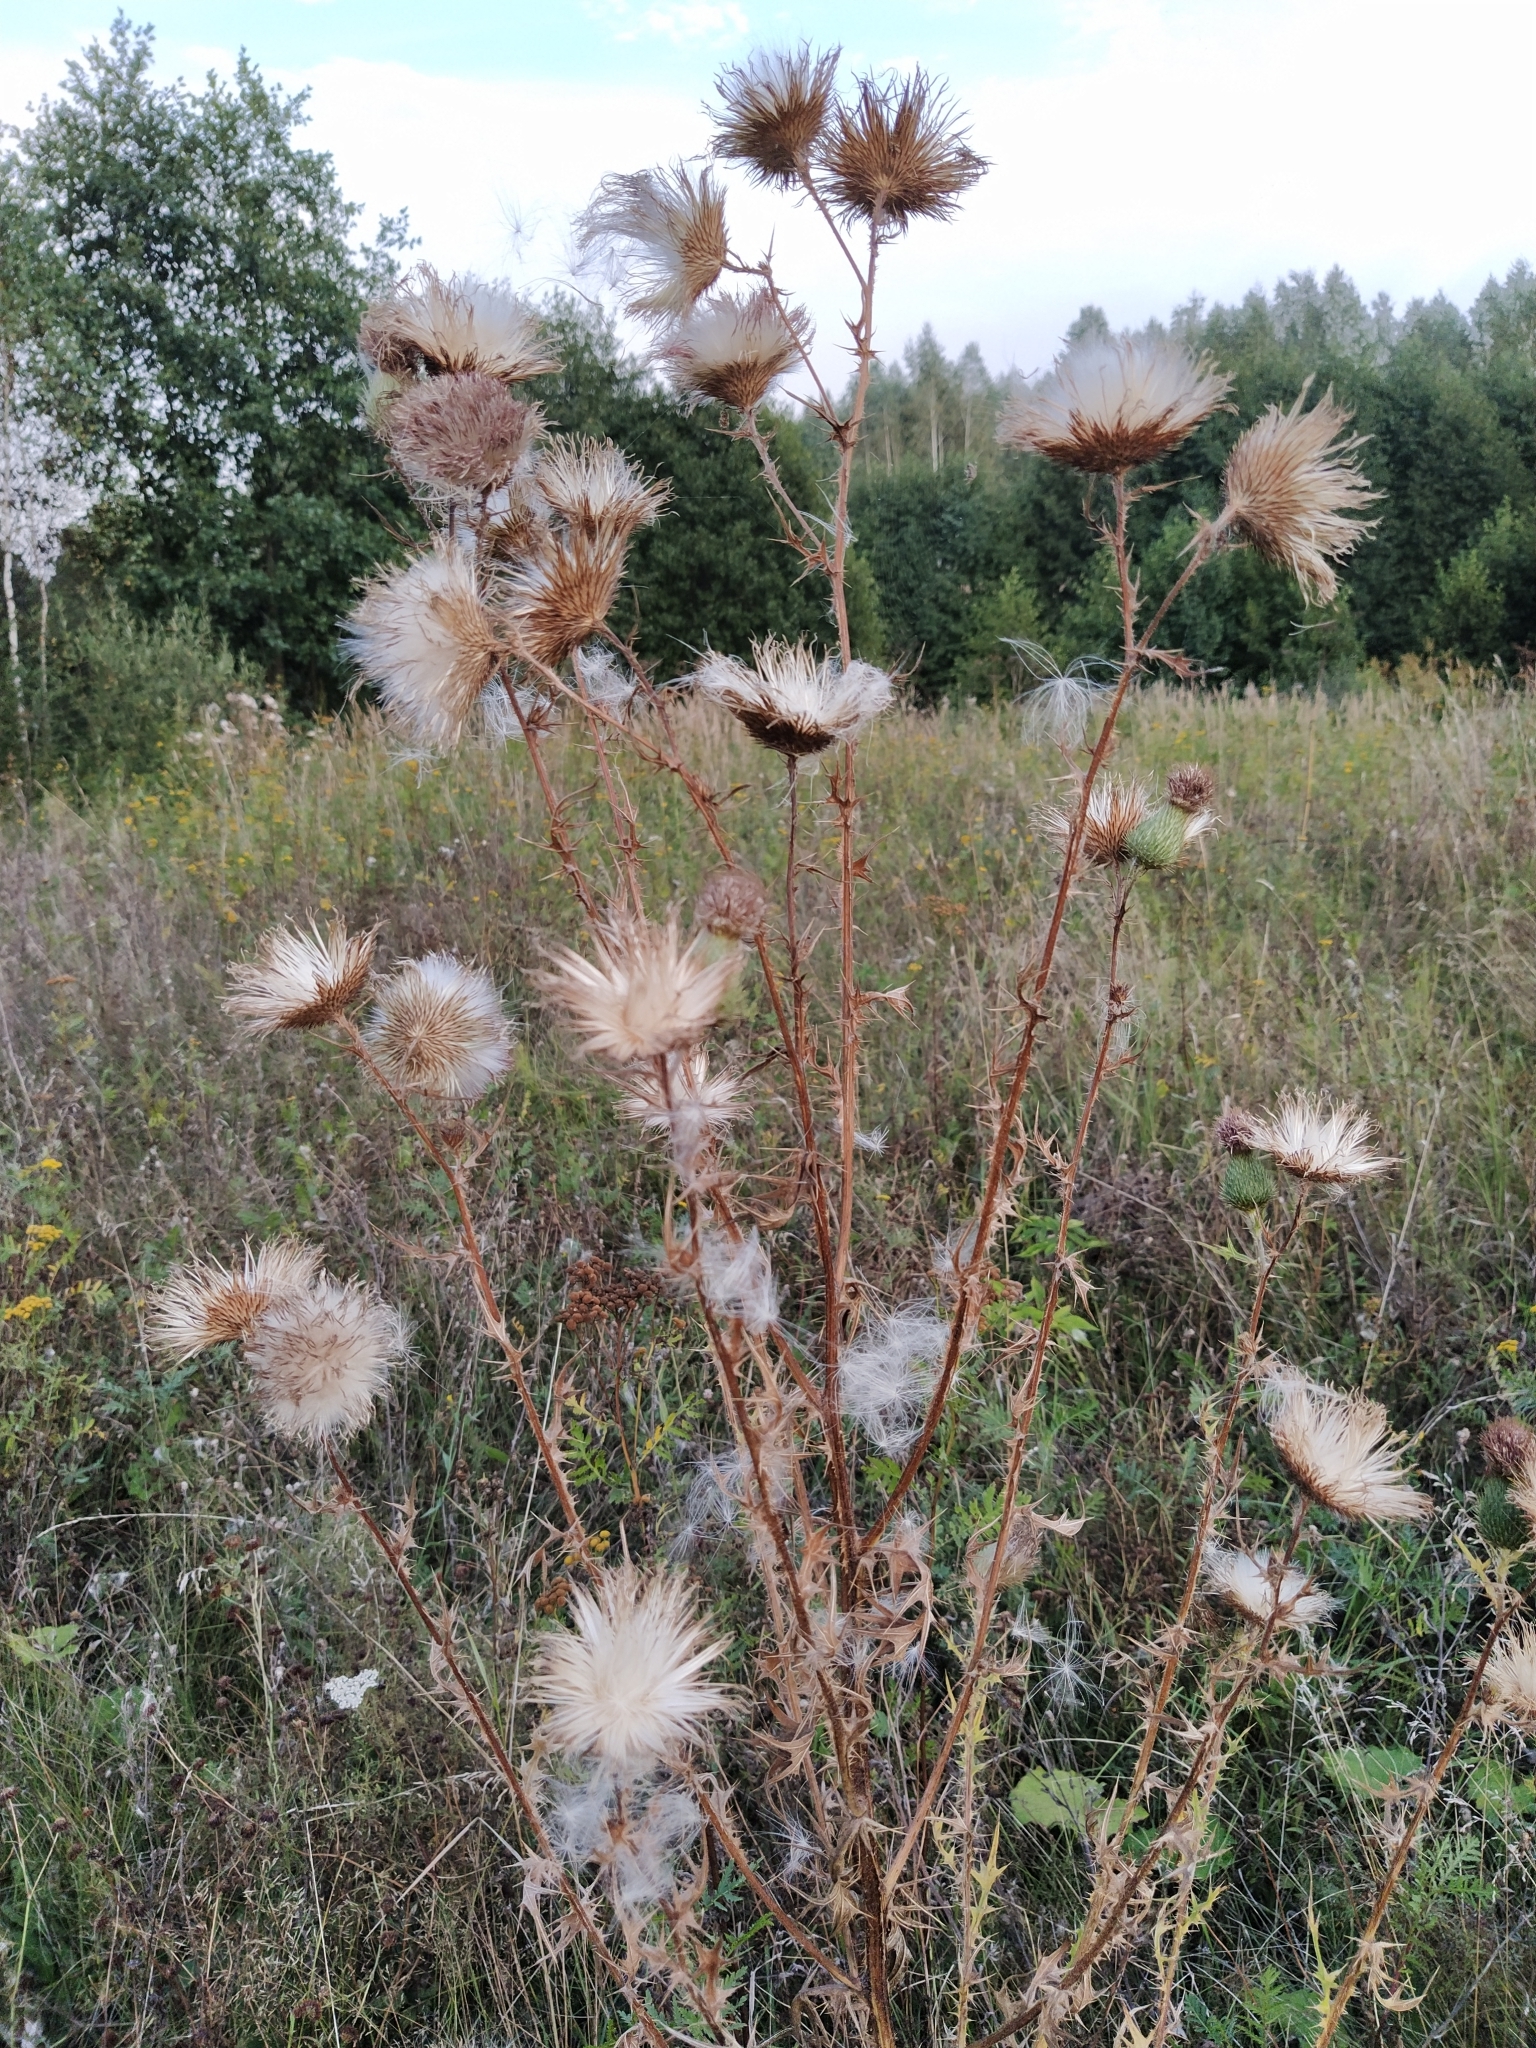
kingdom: Plantae
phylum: Tracheophyta
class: Magnoliopsida
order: Asterales
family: Asteraceae
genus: Cirsium
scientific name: Cirsium vulgare
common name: Bull thistle
